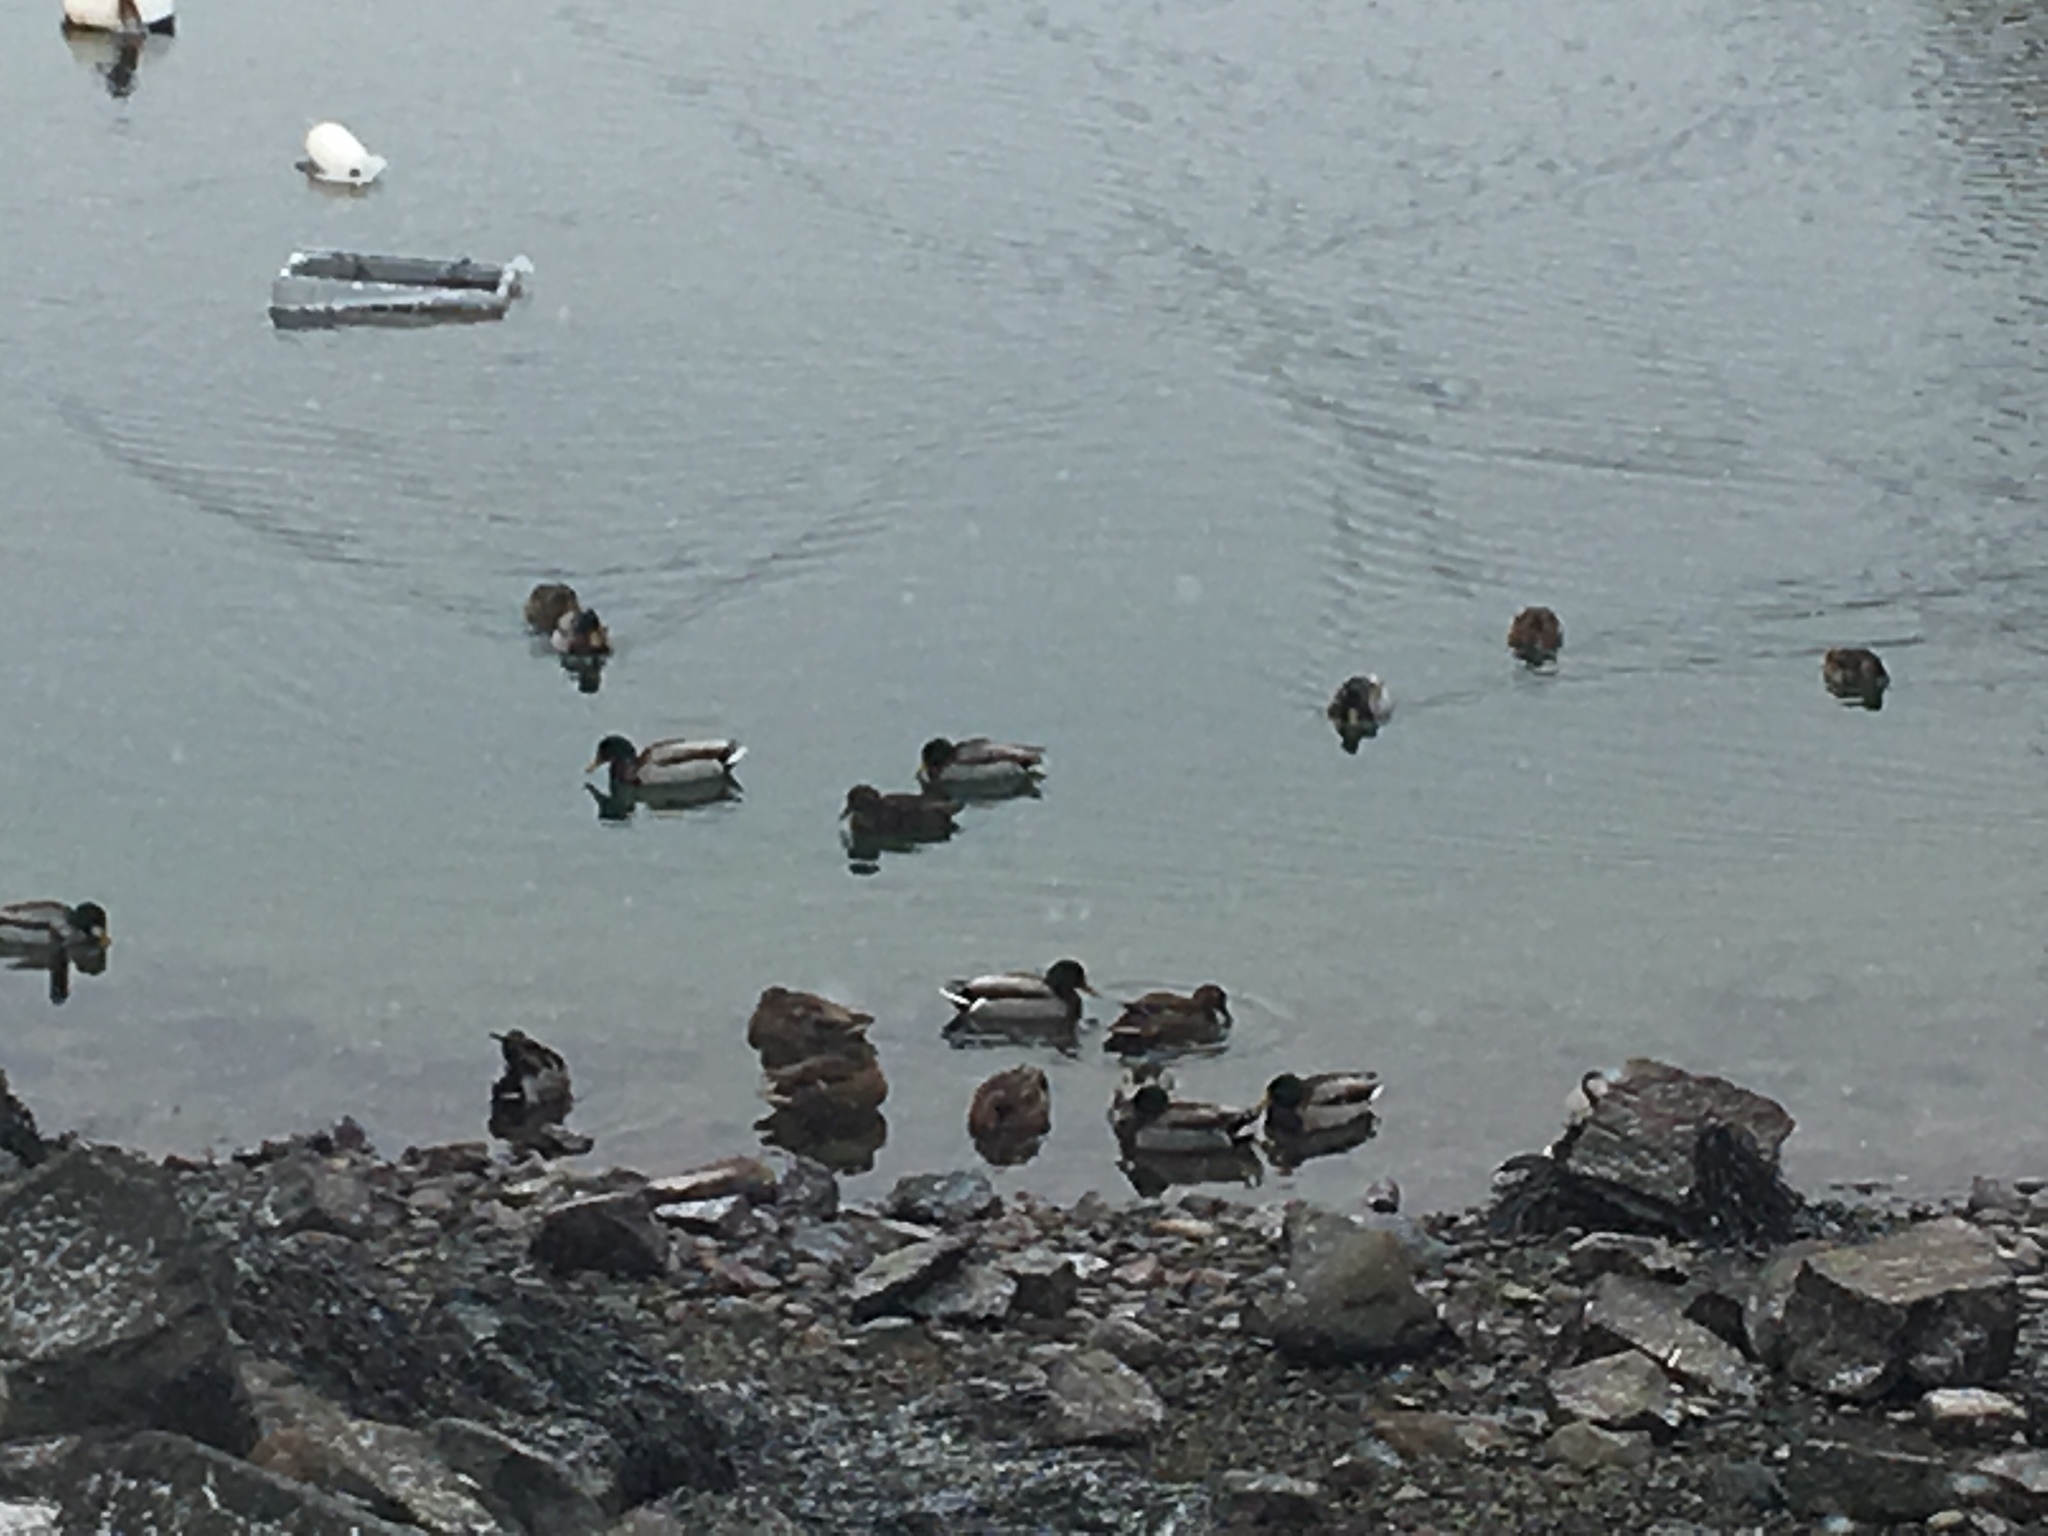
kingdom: Animalia
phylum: Chordata
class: Aves
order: Anseriformes
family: Anatidae
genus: Anas
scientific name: Anas platyrhynchos
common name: Mallard
